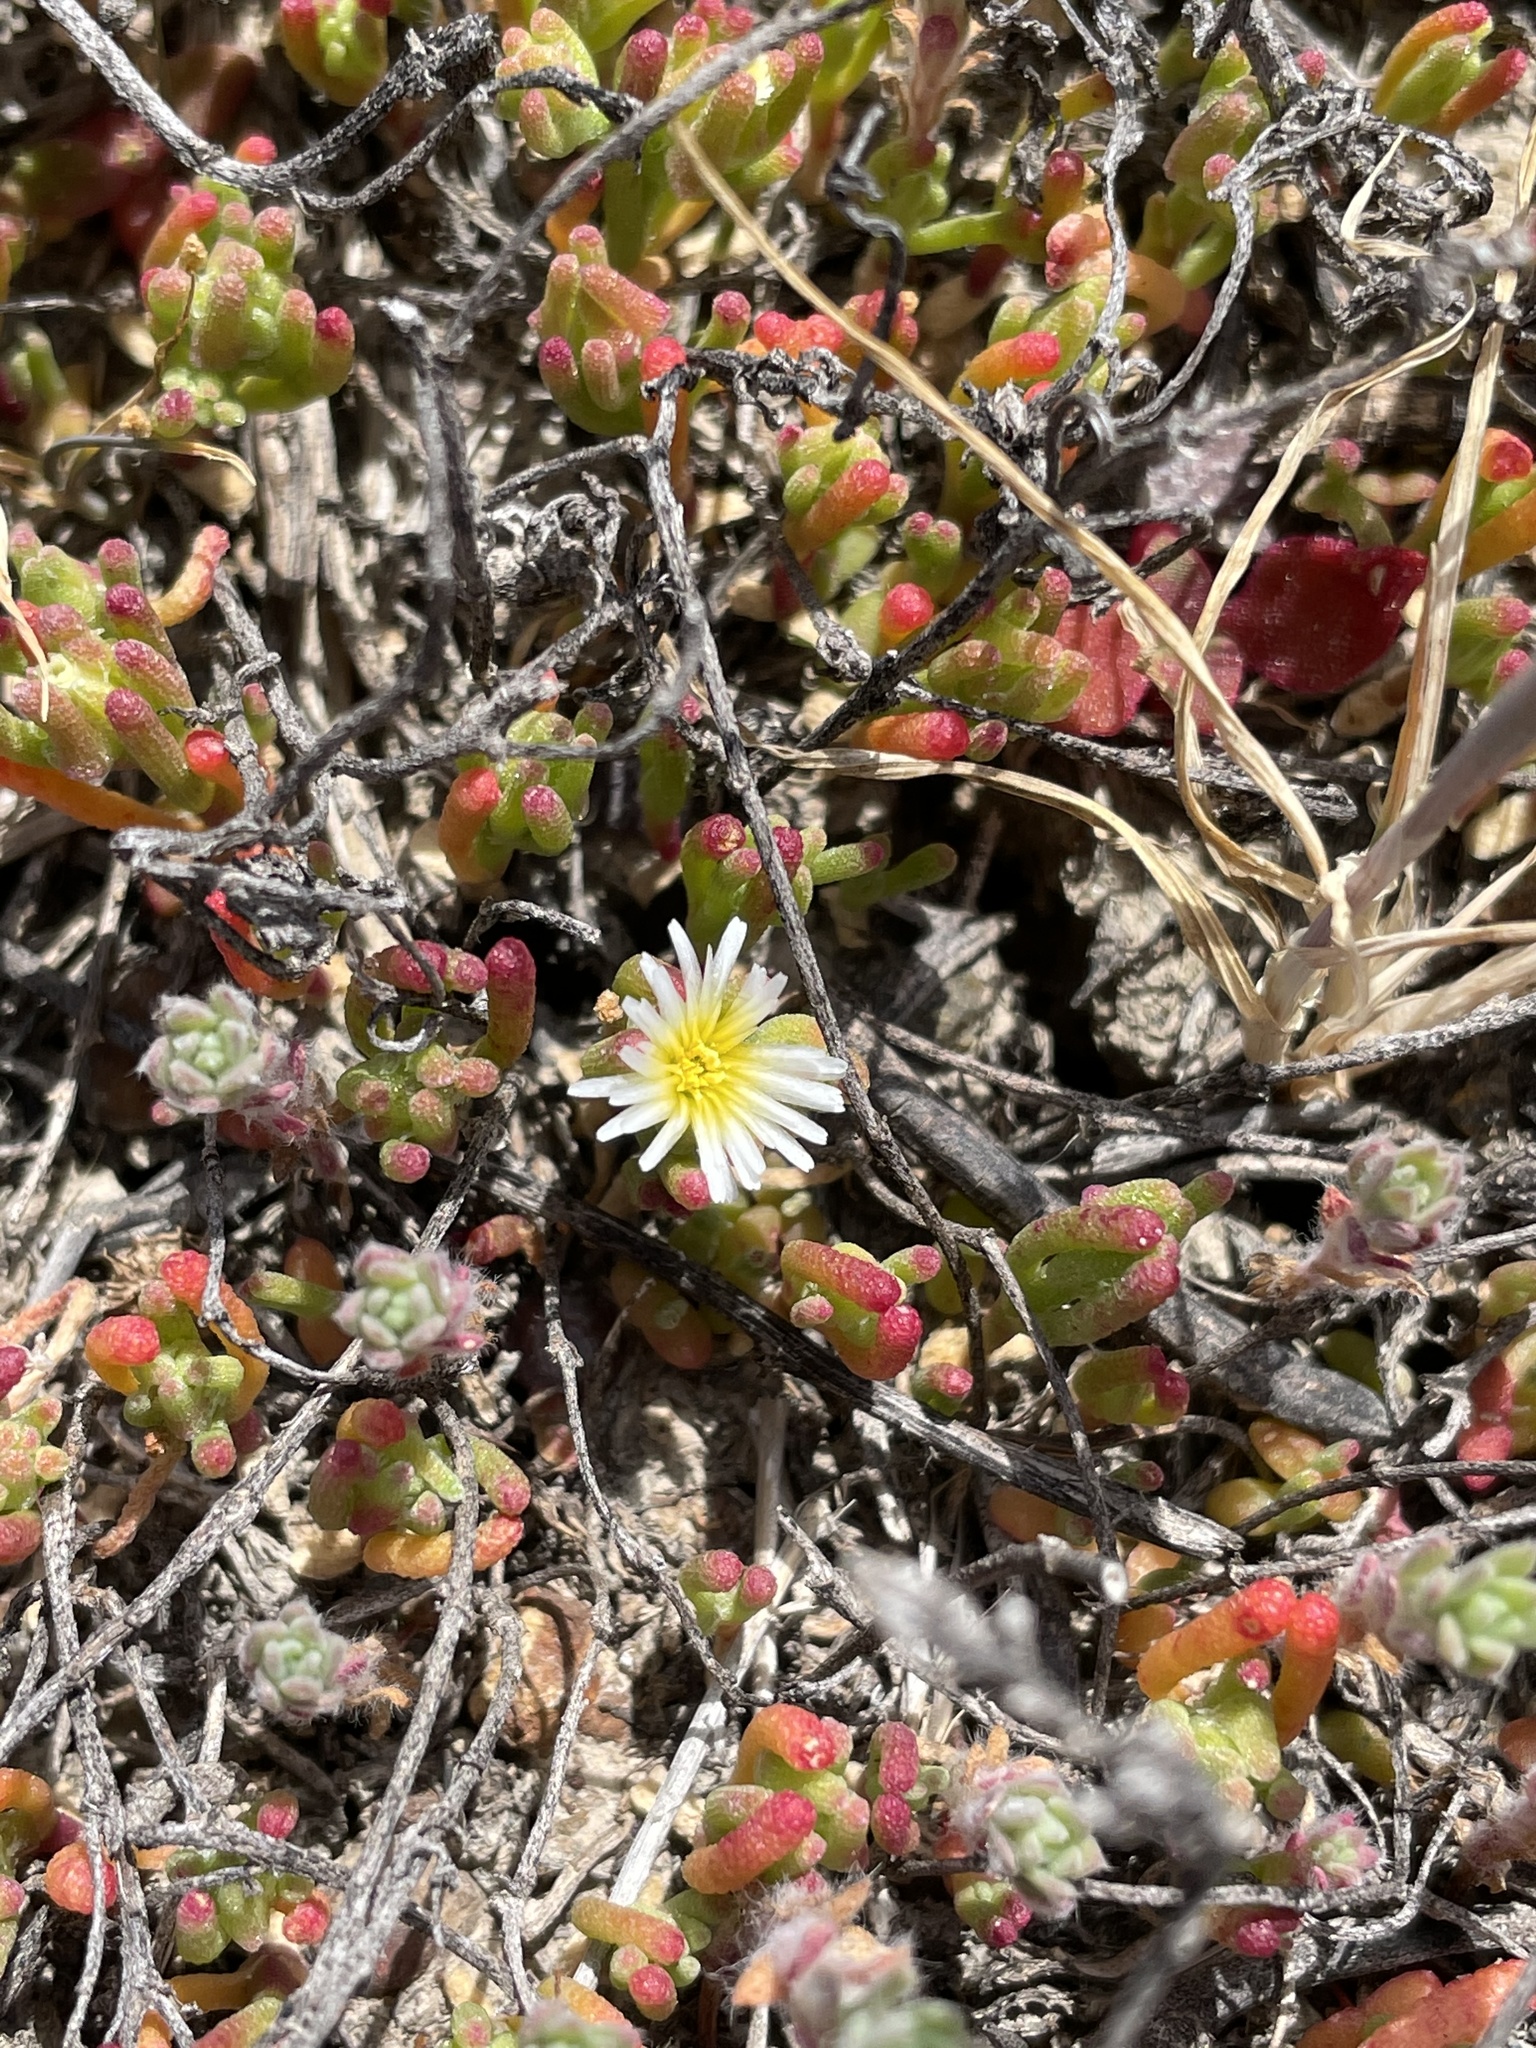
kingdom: Plantae
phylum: Tracheophyta
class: Magnoliopsida
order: Caryophyllales
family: Aizoaceae
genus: Mesembryanthemum
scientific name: Mesembryanthemum nodiflorum
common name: Slenderleaf iceplant
